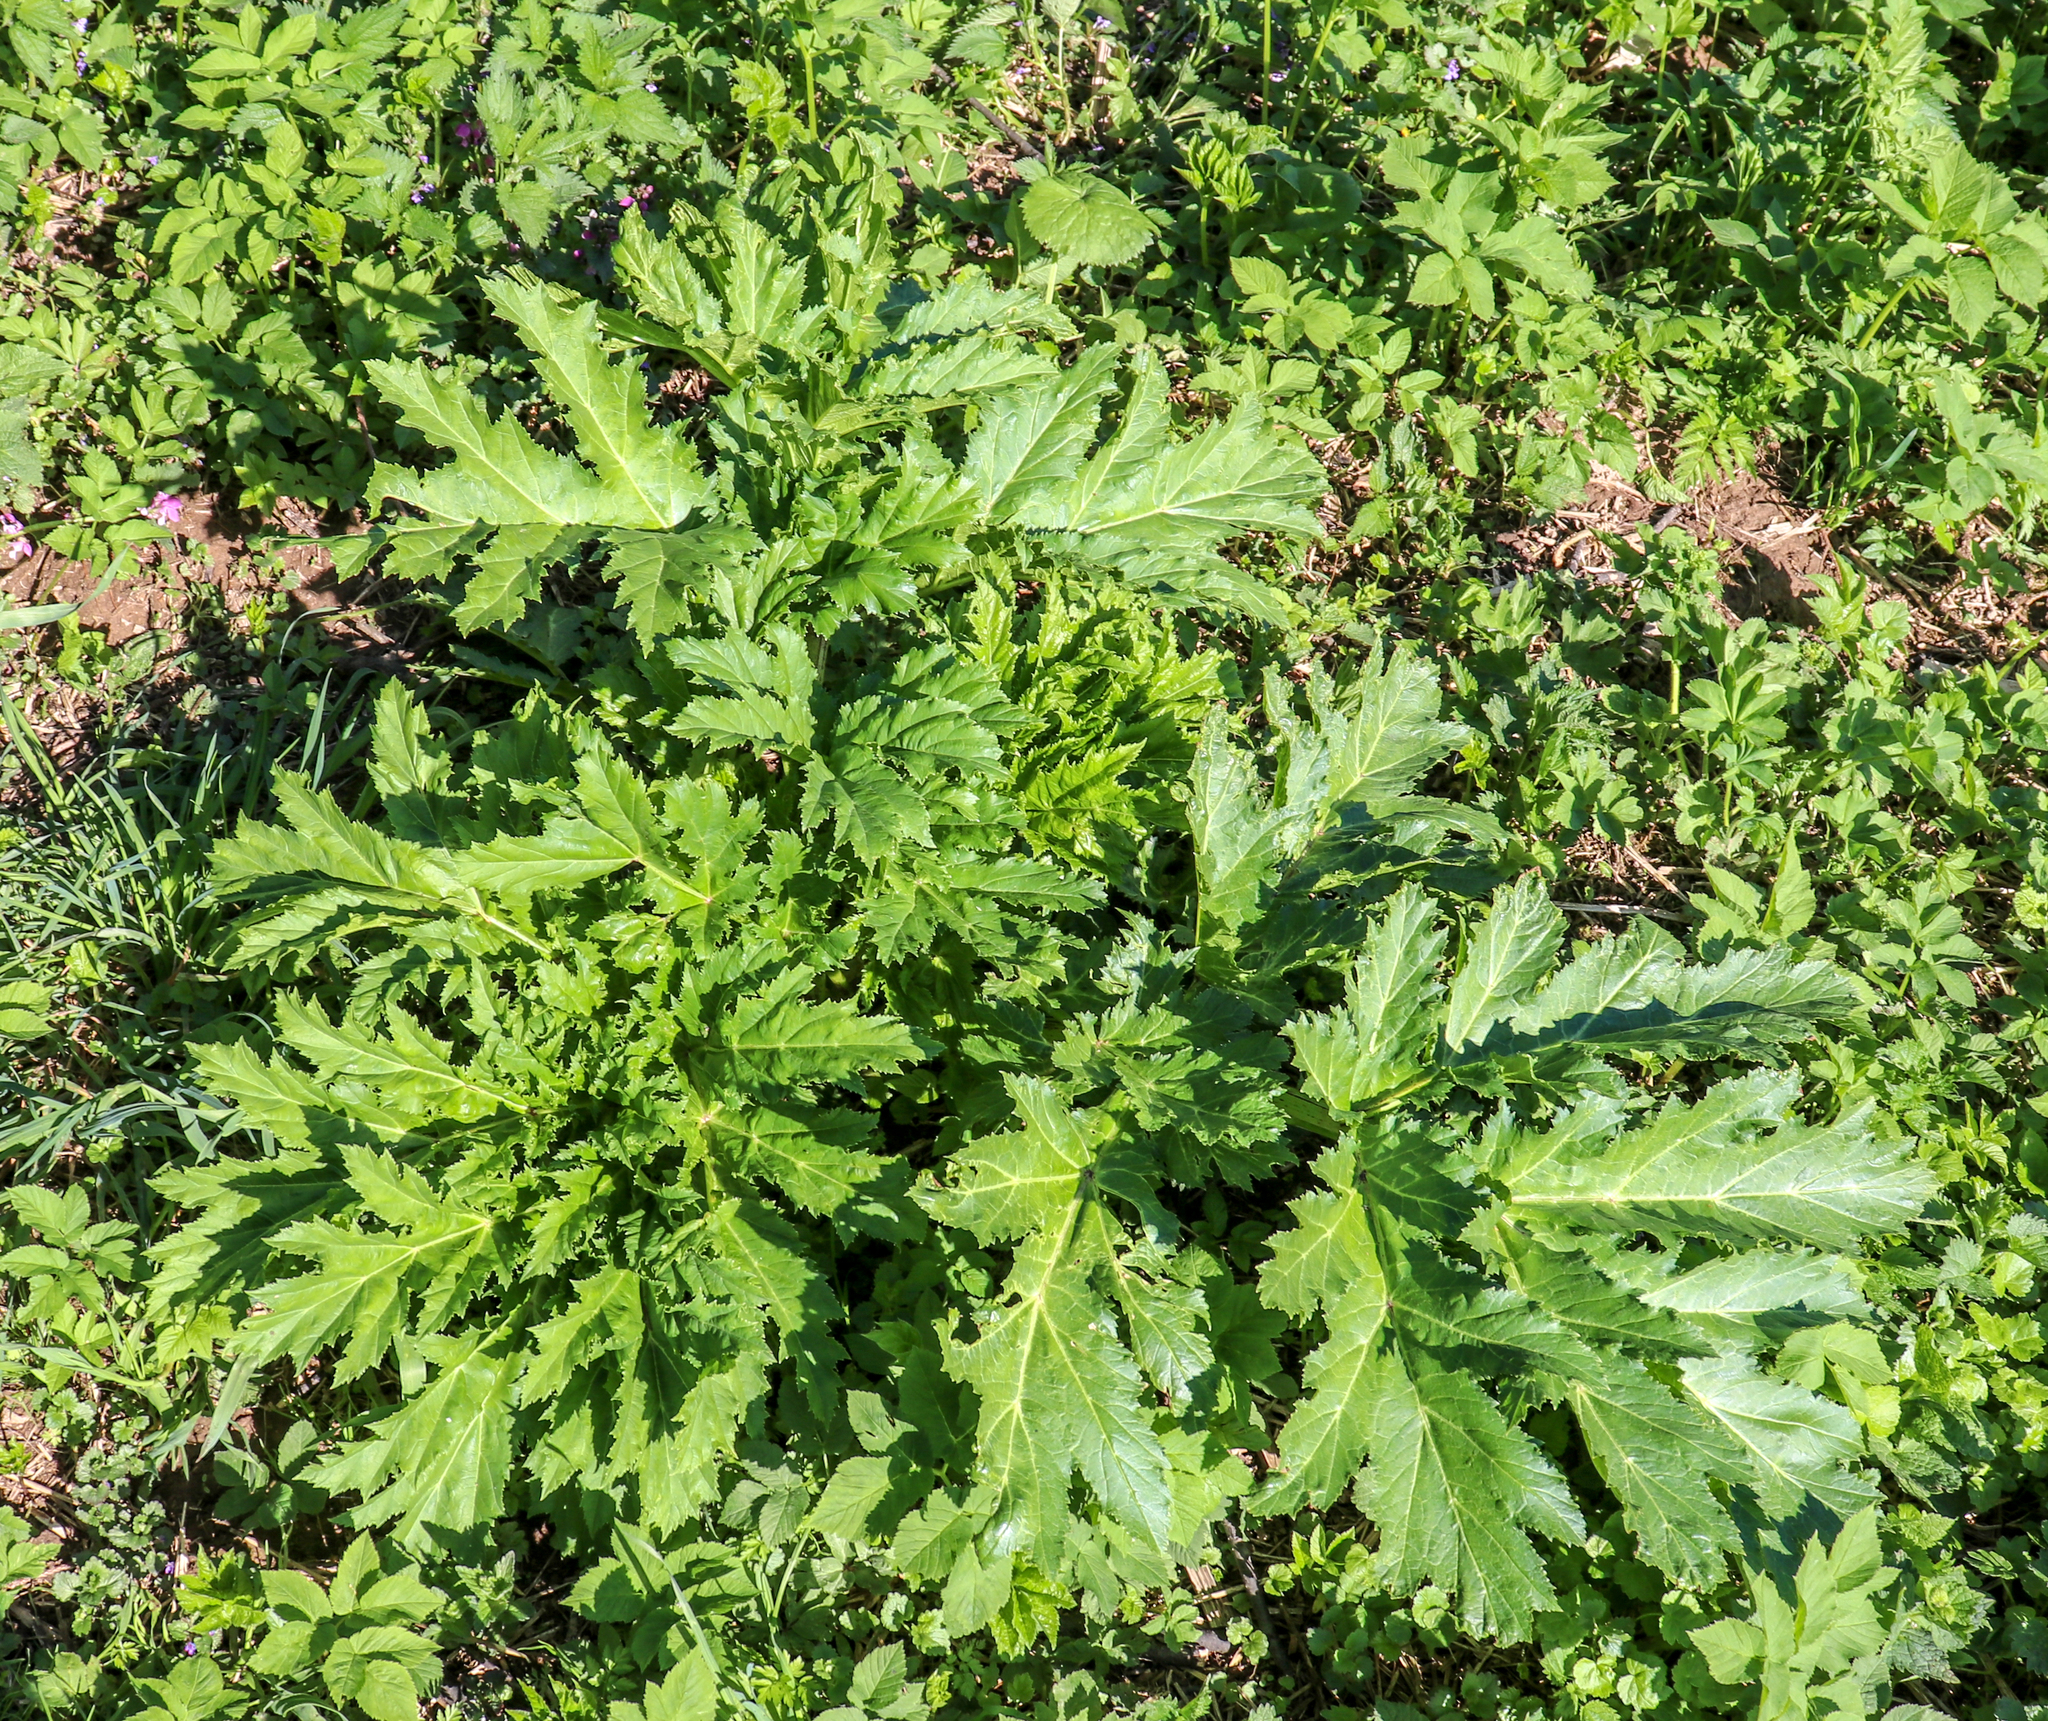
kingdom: Plantae
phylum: Tracheophyta
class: Magnoliopsida
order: Apiales
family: Apiaceae
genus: Heracleum
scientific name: Heracleum sosnowskyi
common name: Sosnowsky's hogweed
